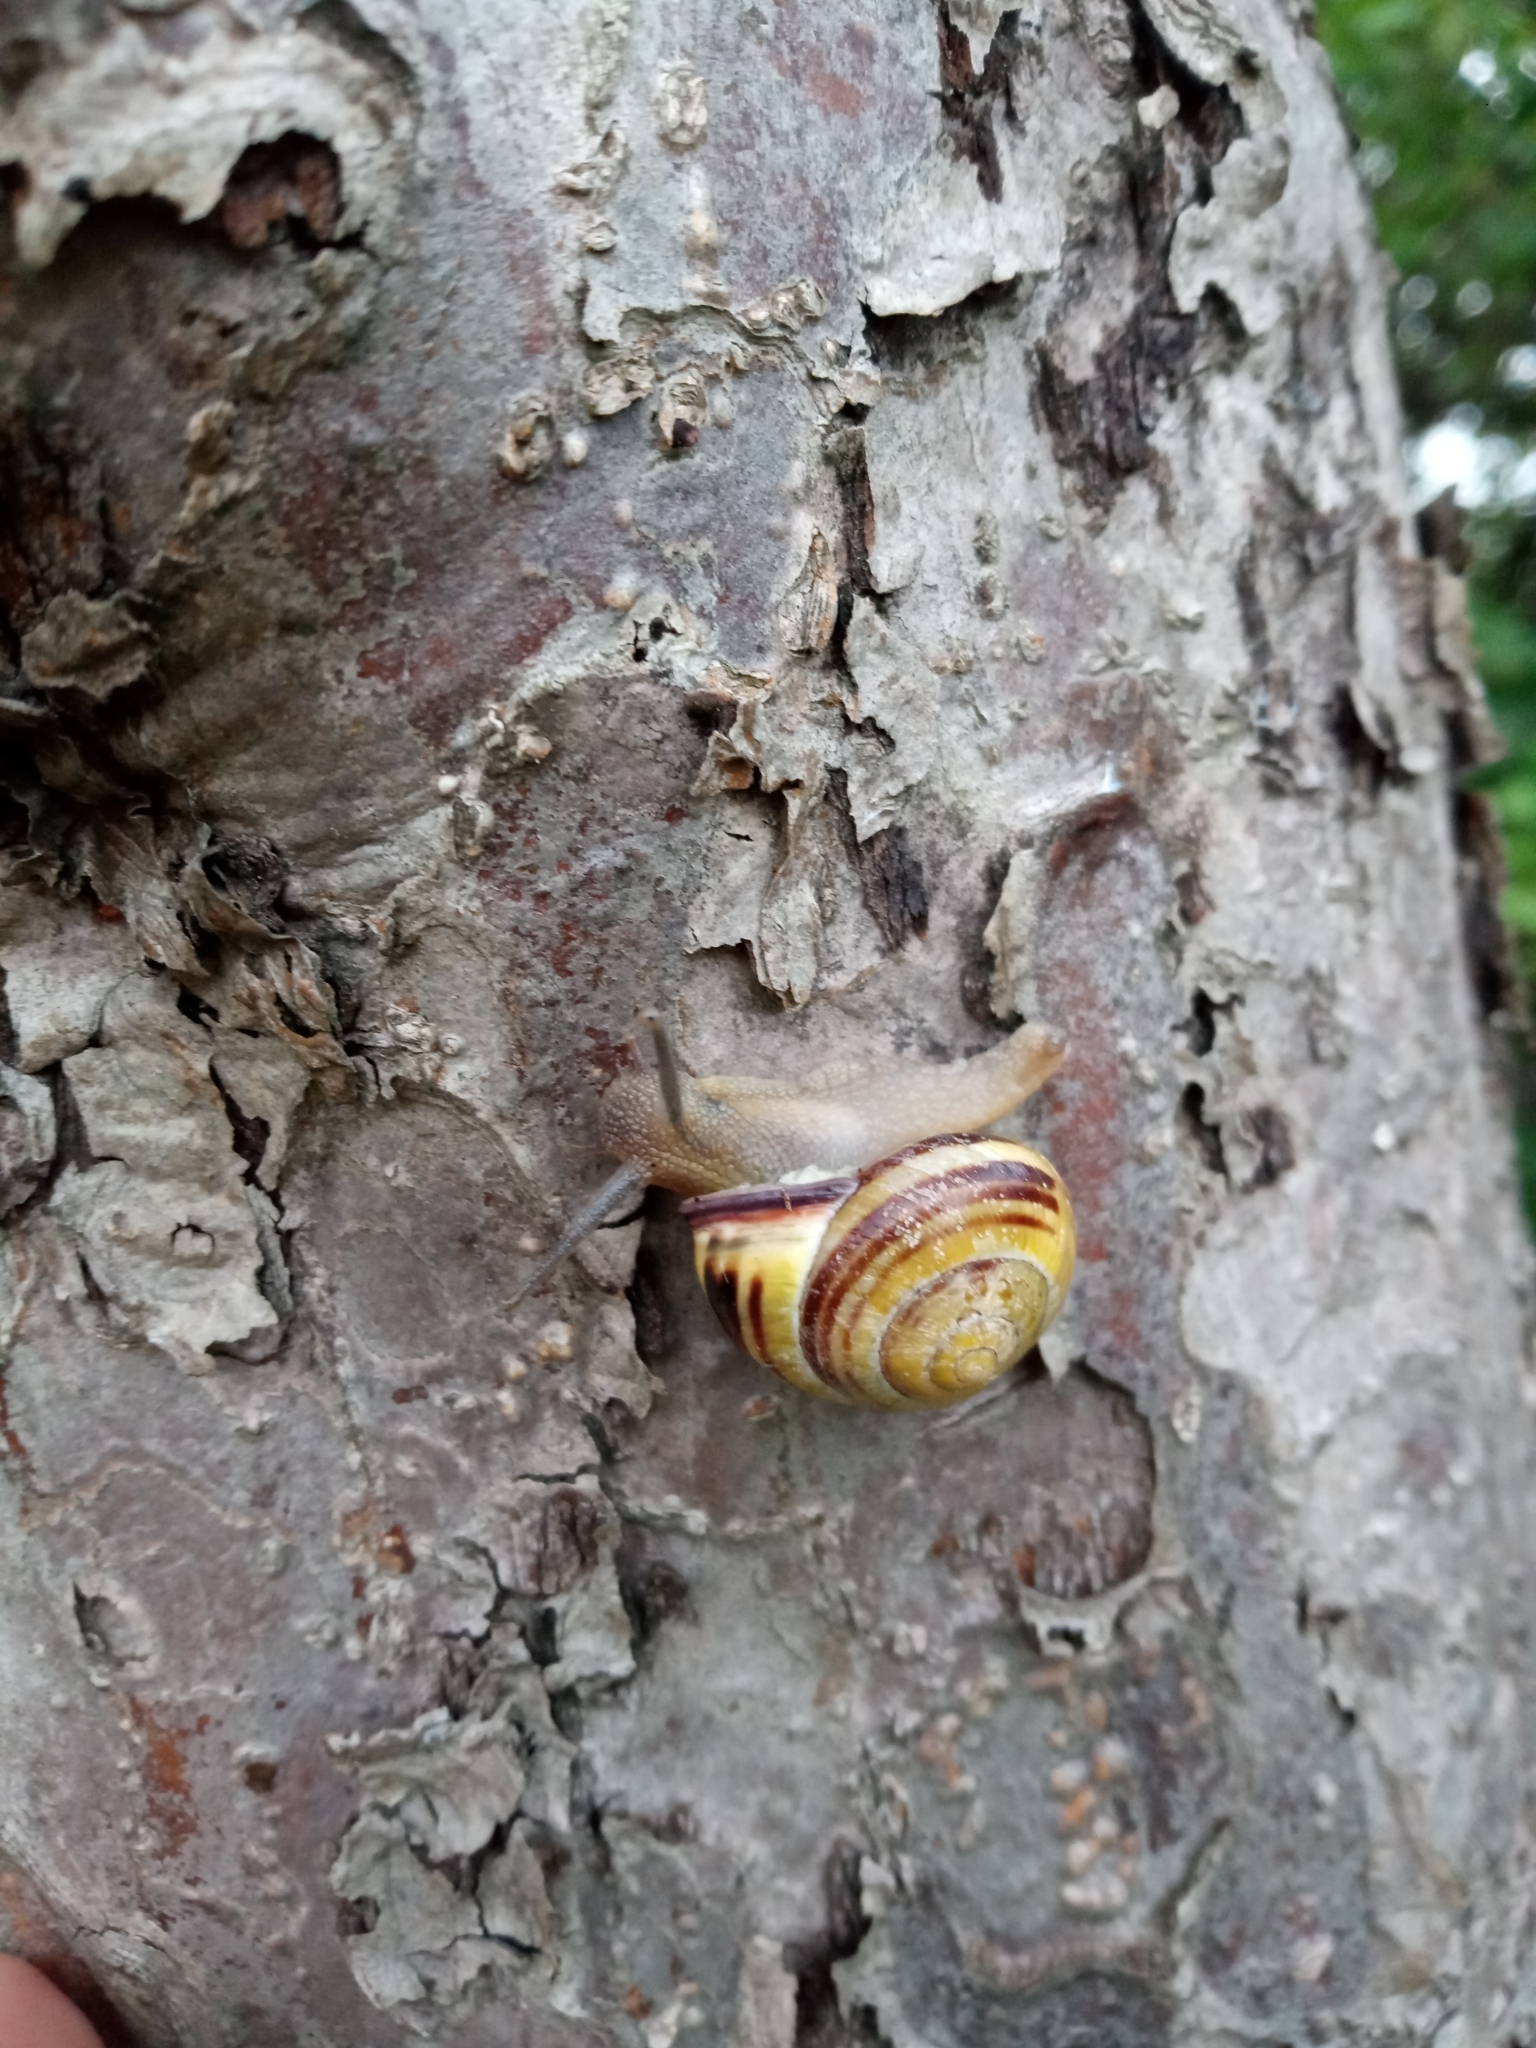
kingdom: Animalia
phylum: Mollusca
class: Gastropoda
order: Stylommatophora
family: Helicidae
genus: Cepaea
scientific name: Cepaea nemoralis
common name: Grovesnail
